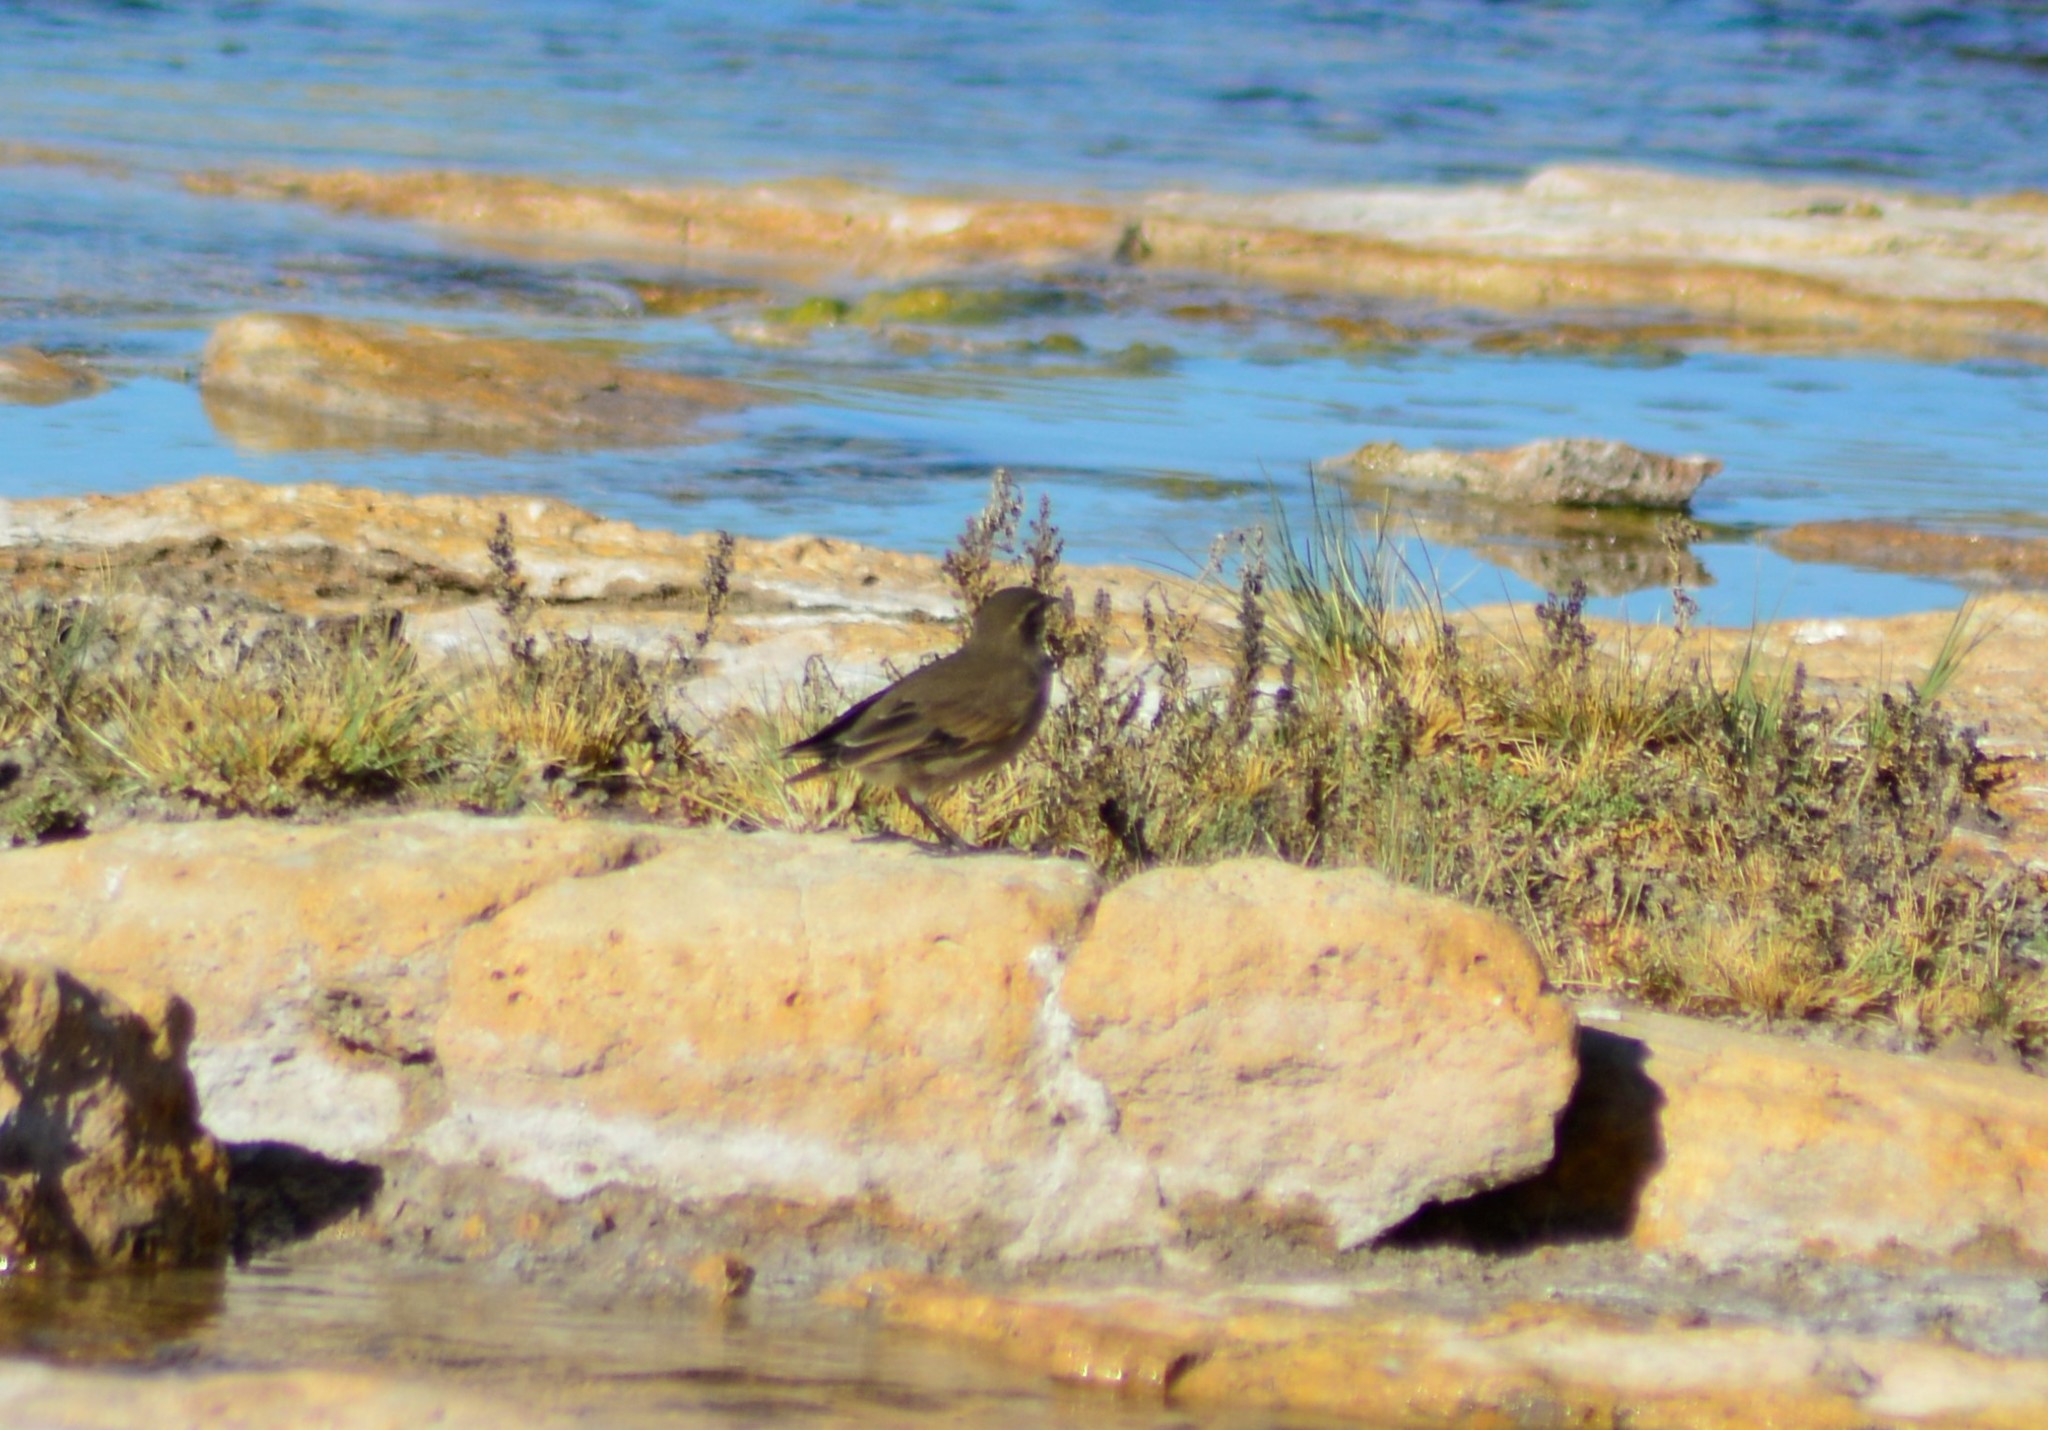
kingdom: Animalia
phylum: Chordata
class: Aves
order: Passeriformes
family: Furnariidae
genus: Cinclodes
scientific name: Cinclodes fuscus
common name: Buff-winged cinclodes
